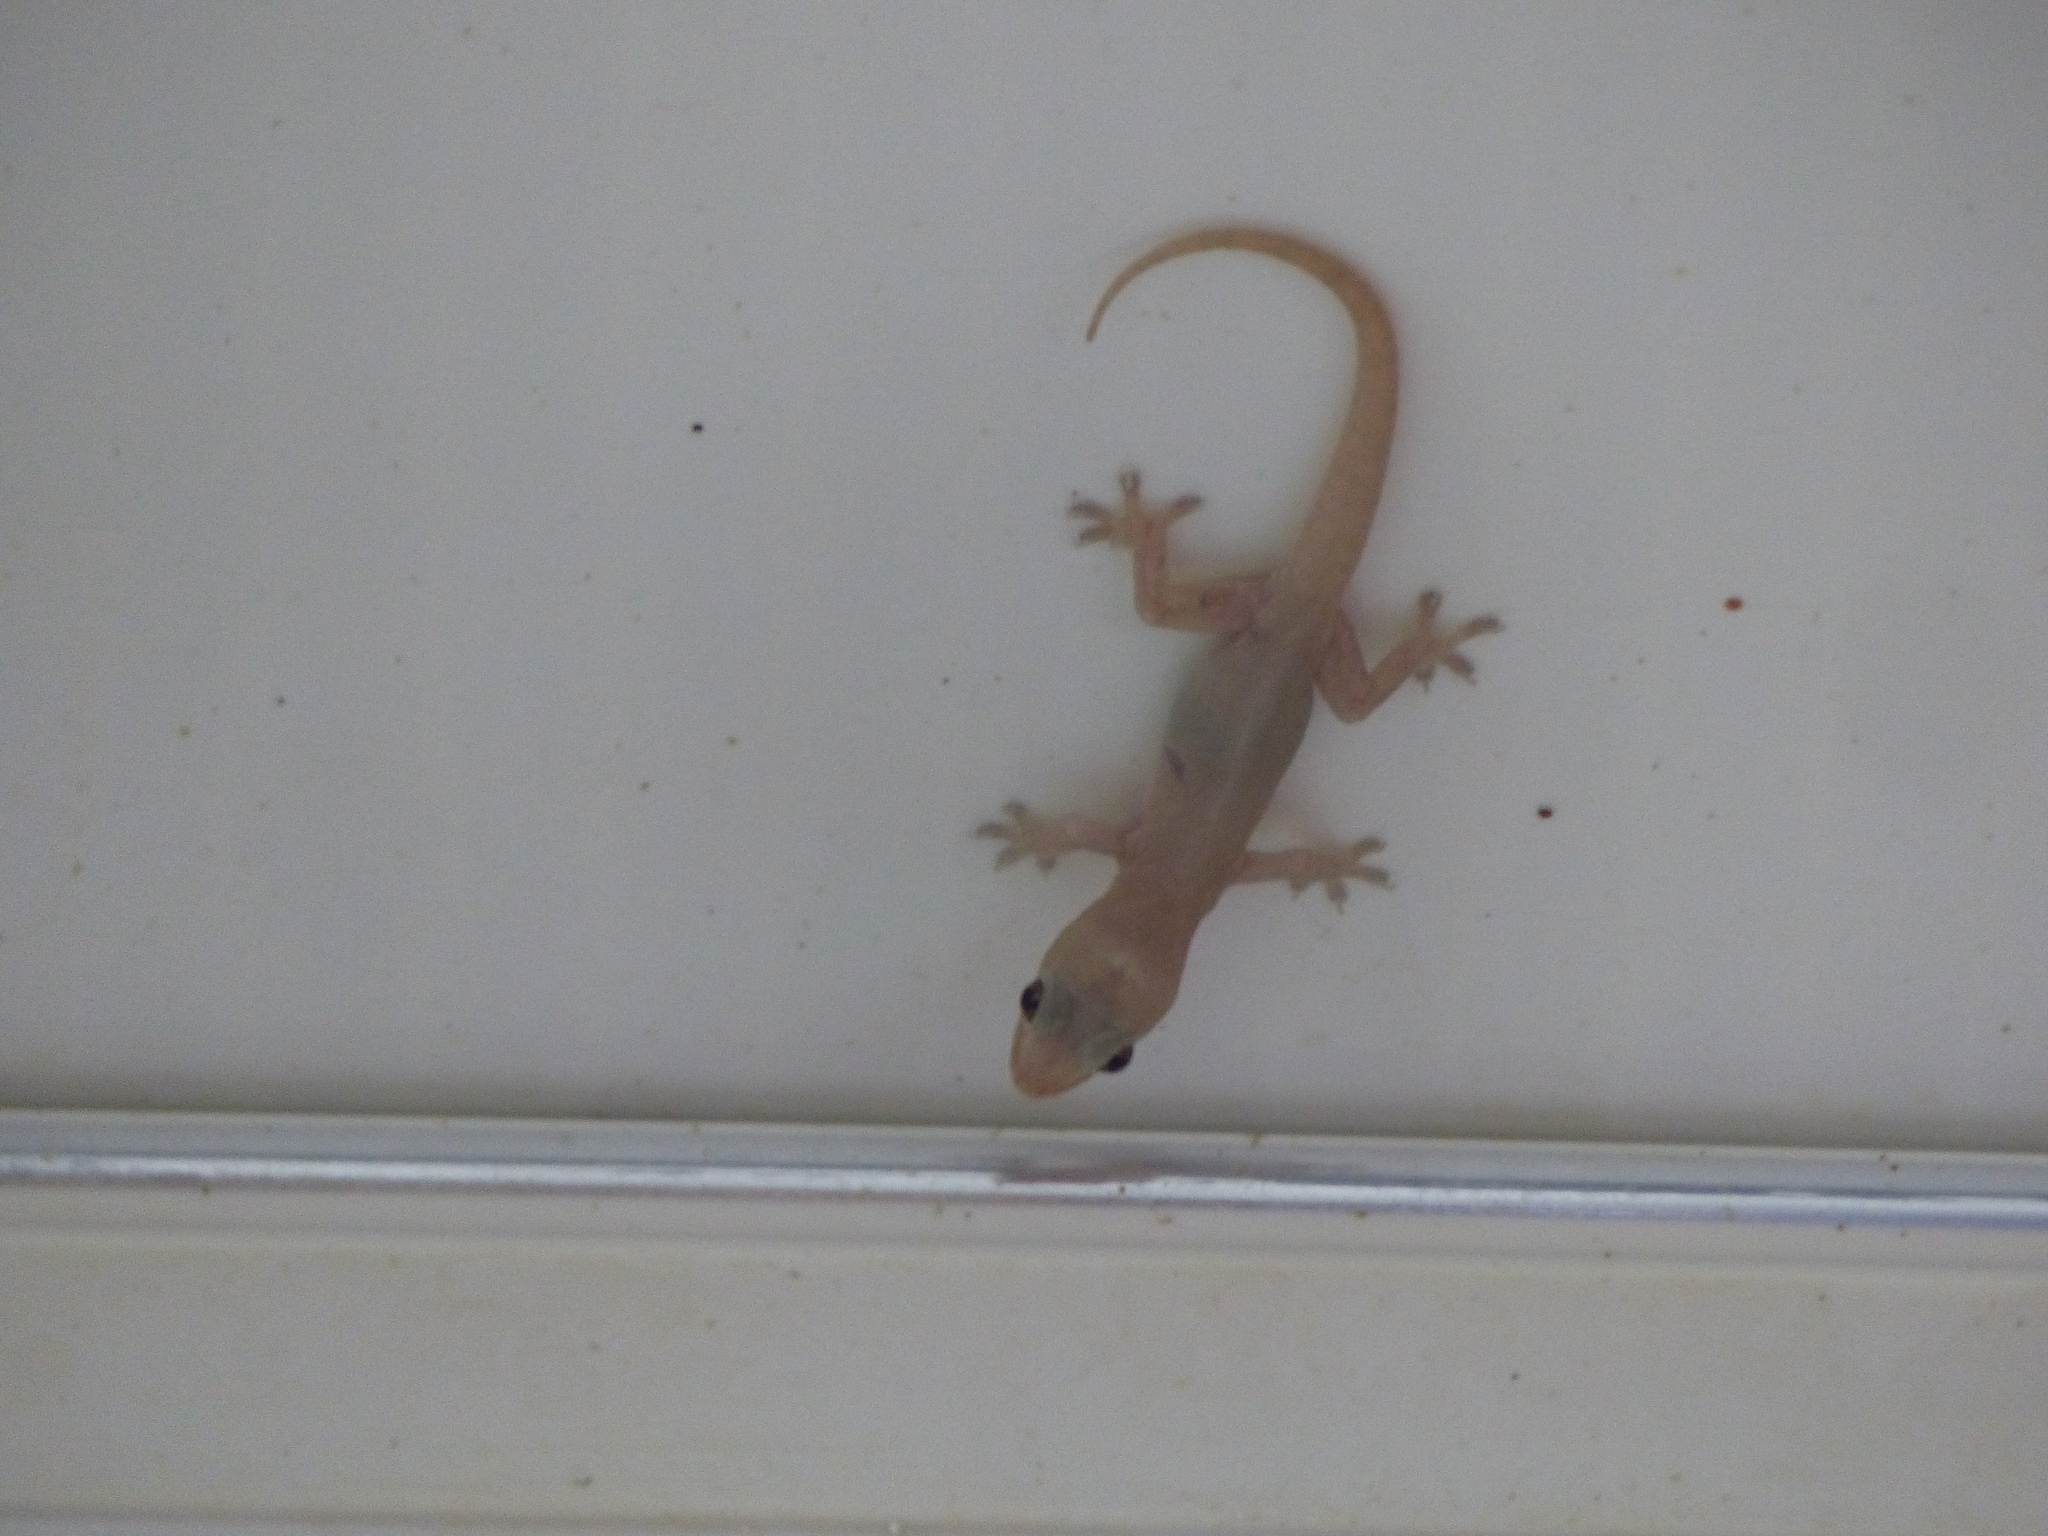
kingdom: Animalia
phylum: Chordata
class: Squamata
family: Gekkonidae
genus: Hemidactylus
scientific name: Hemidactylus frenatus
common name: Common house gecko
